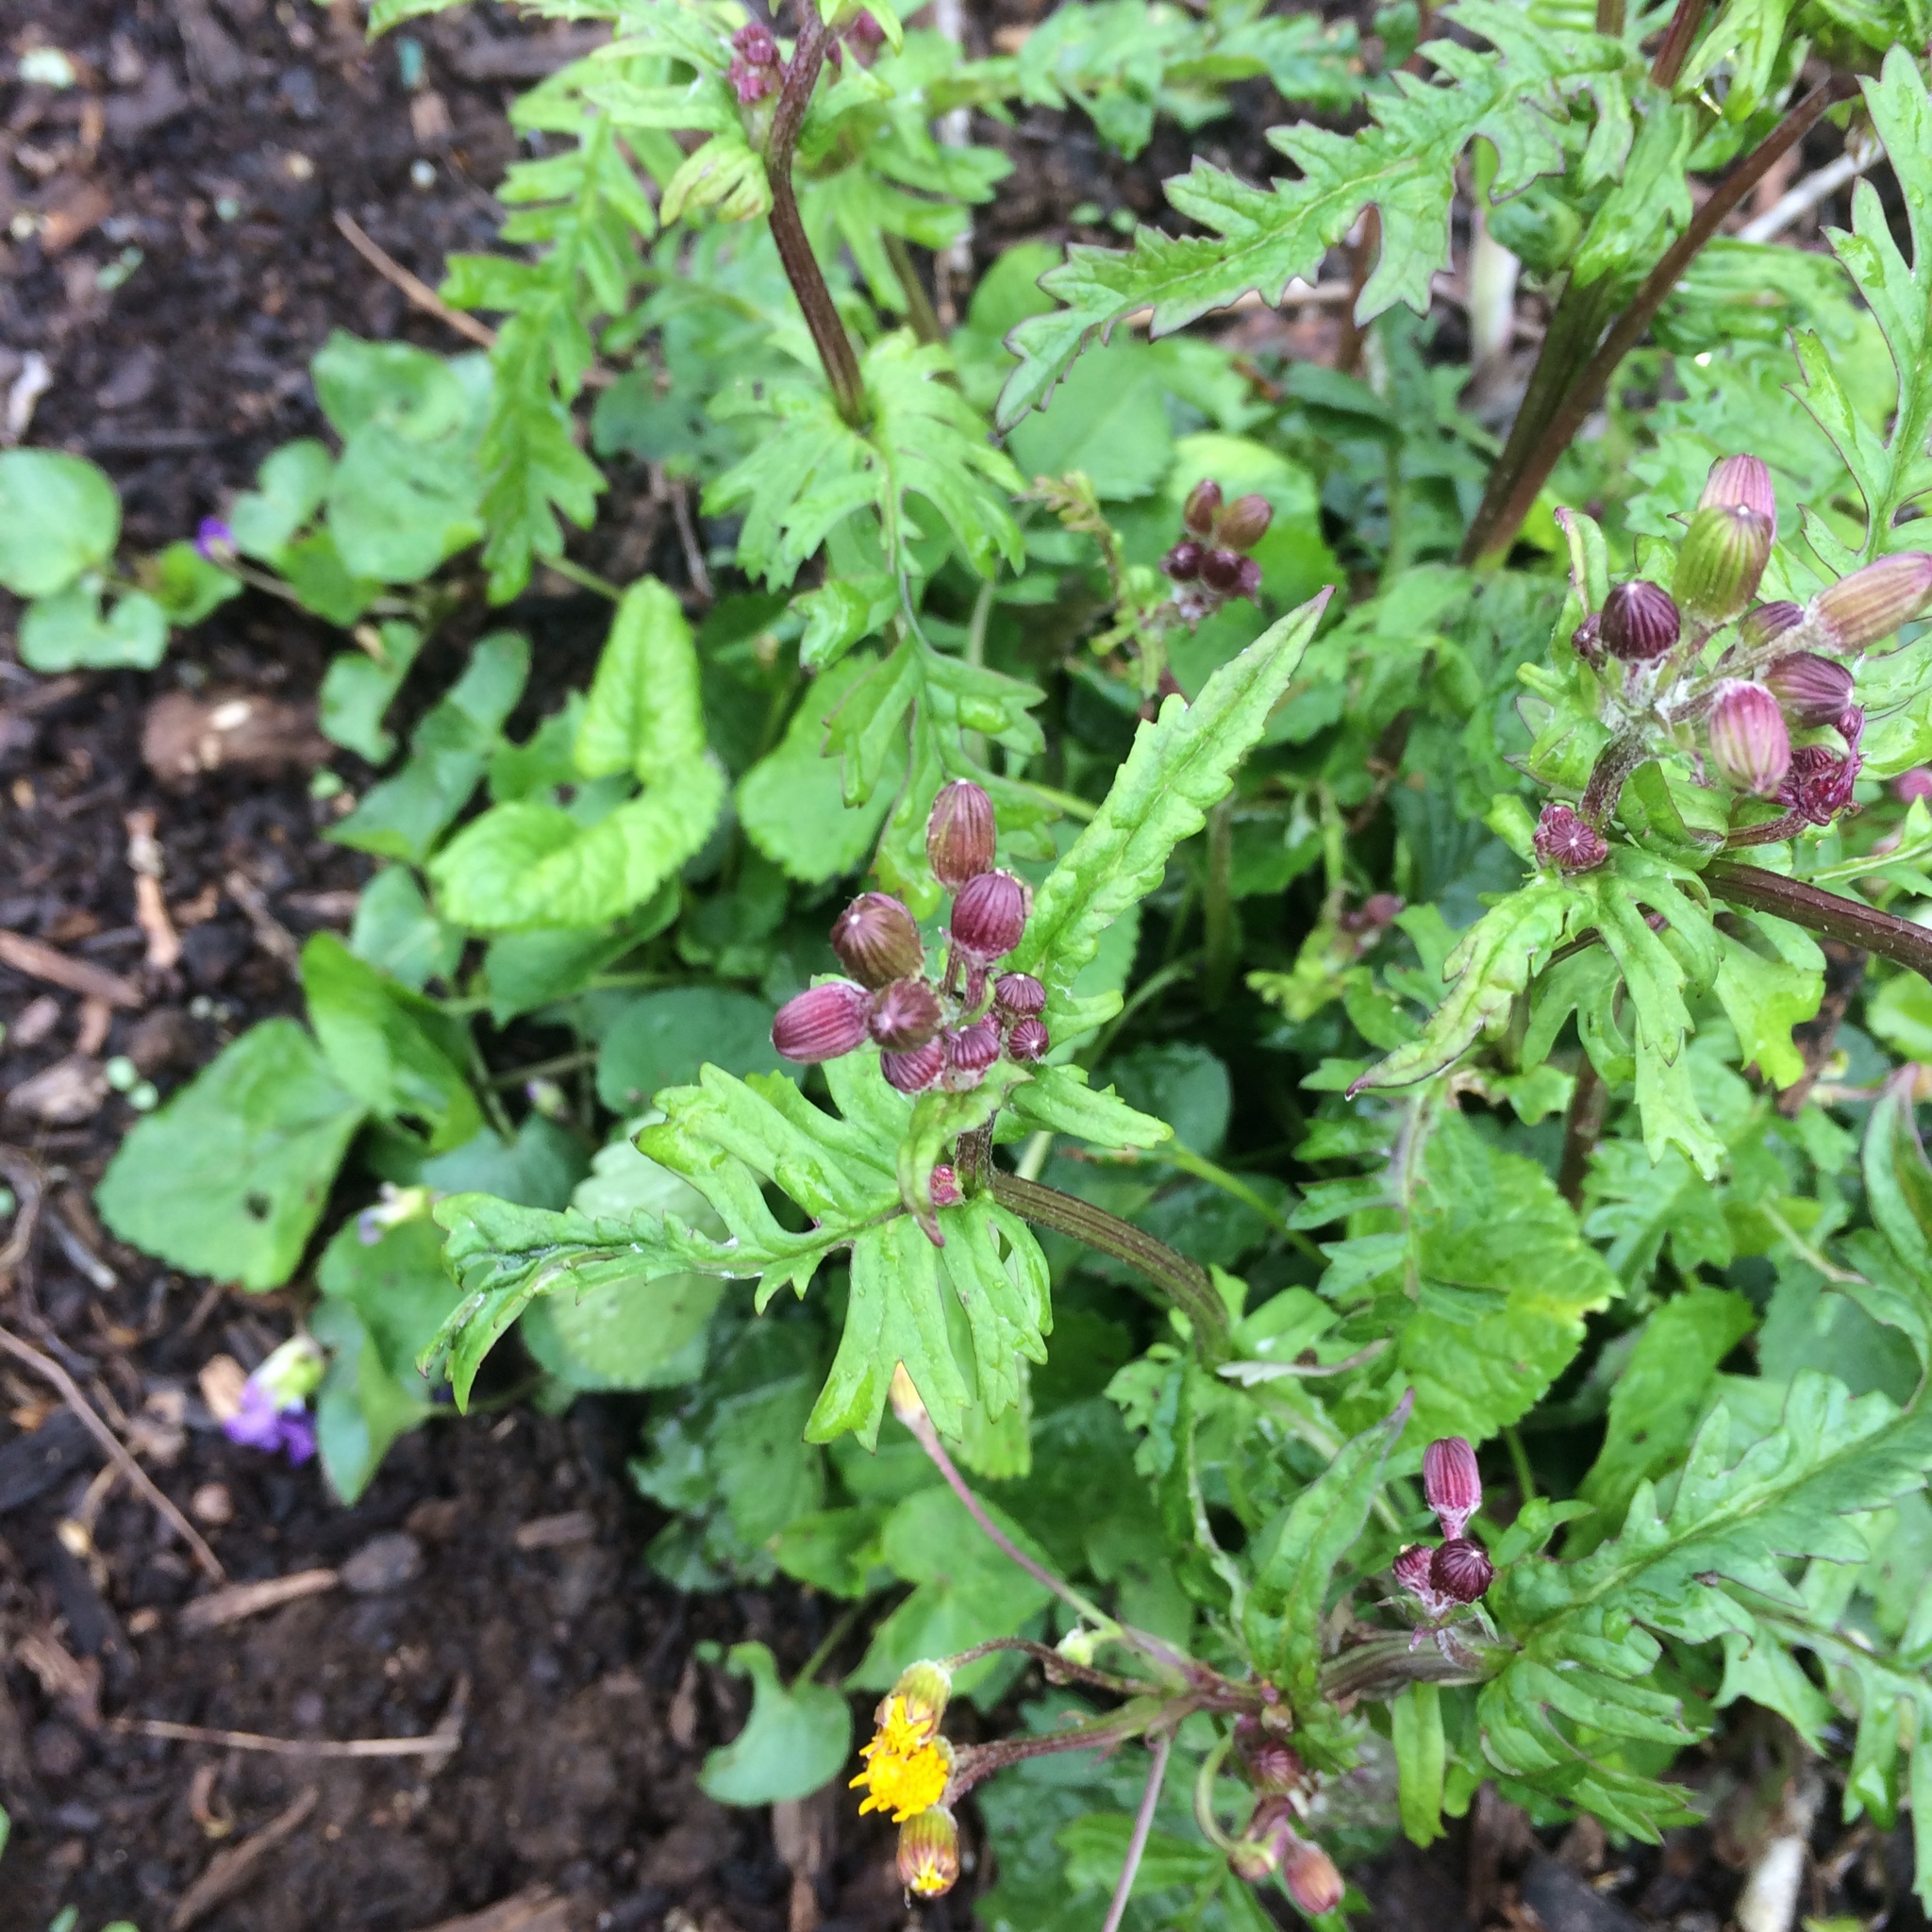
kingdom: Plantae
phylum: Tracheophyta
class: Magnoliopsida
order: Asterales
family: Asteraceae
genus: Packera
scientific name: Packera aurea
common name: Golden groundsel
